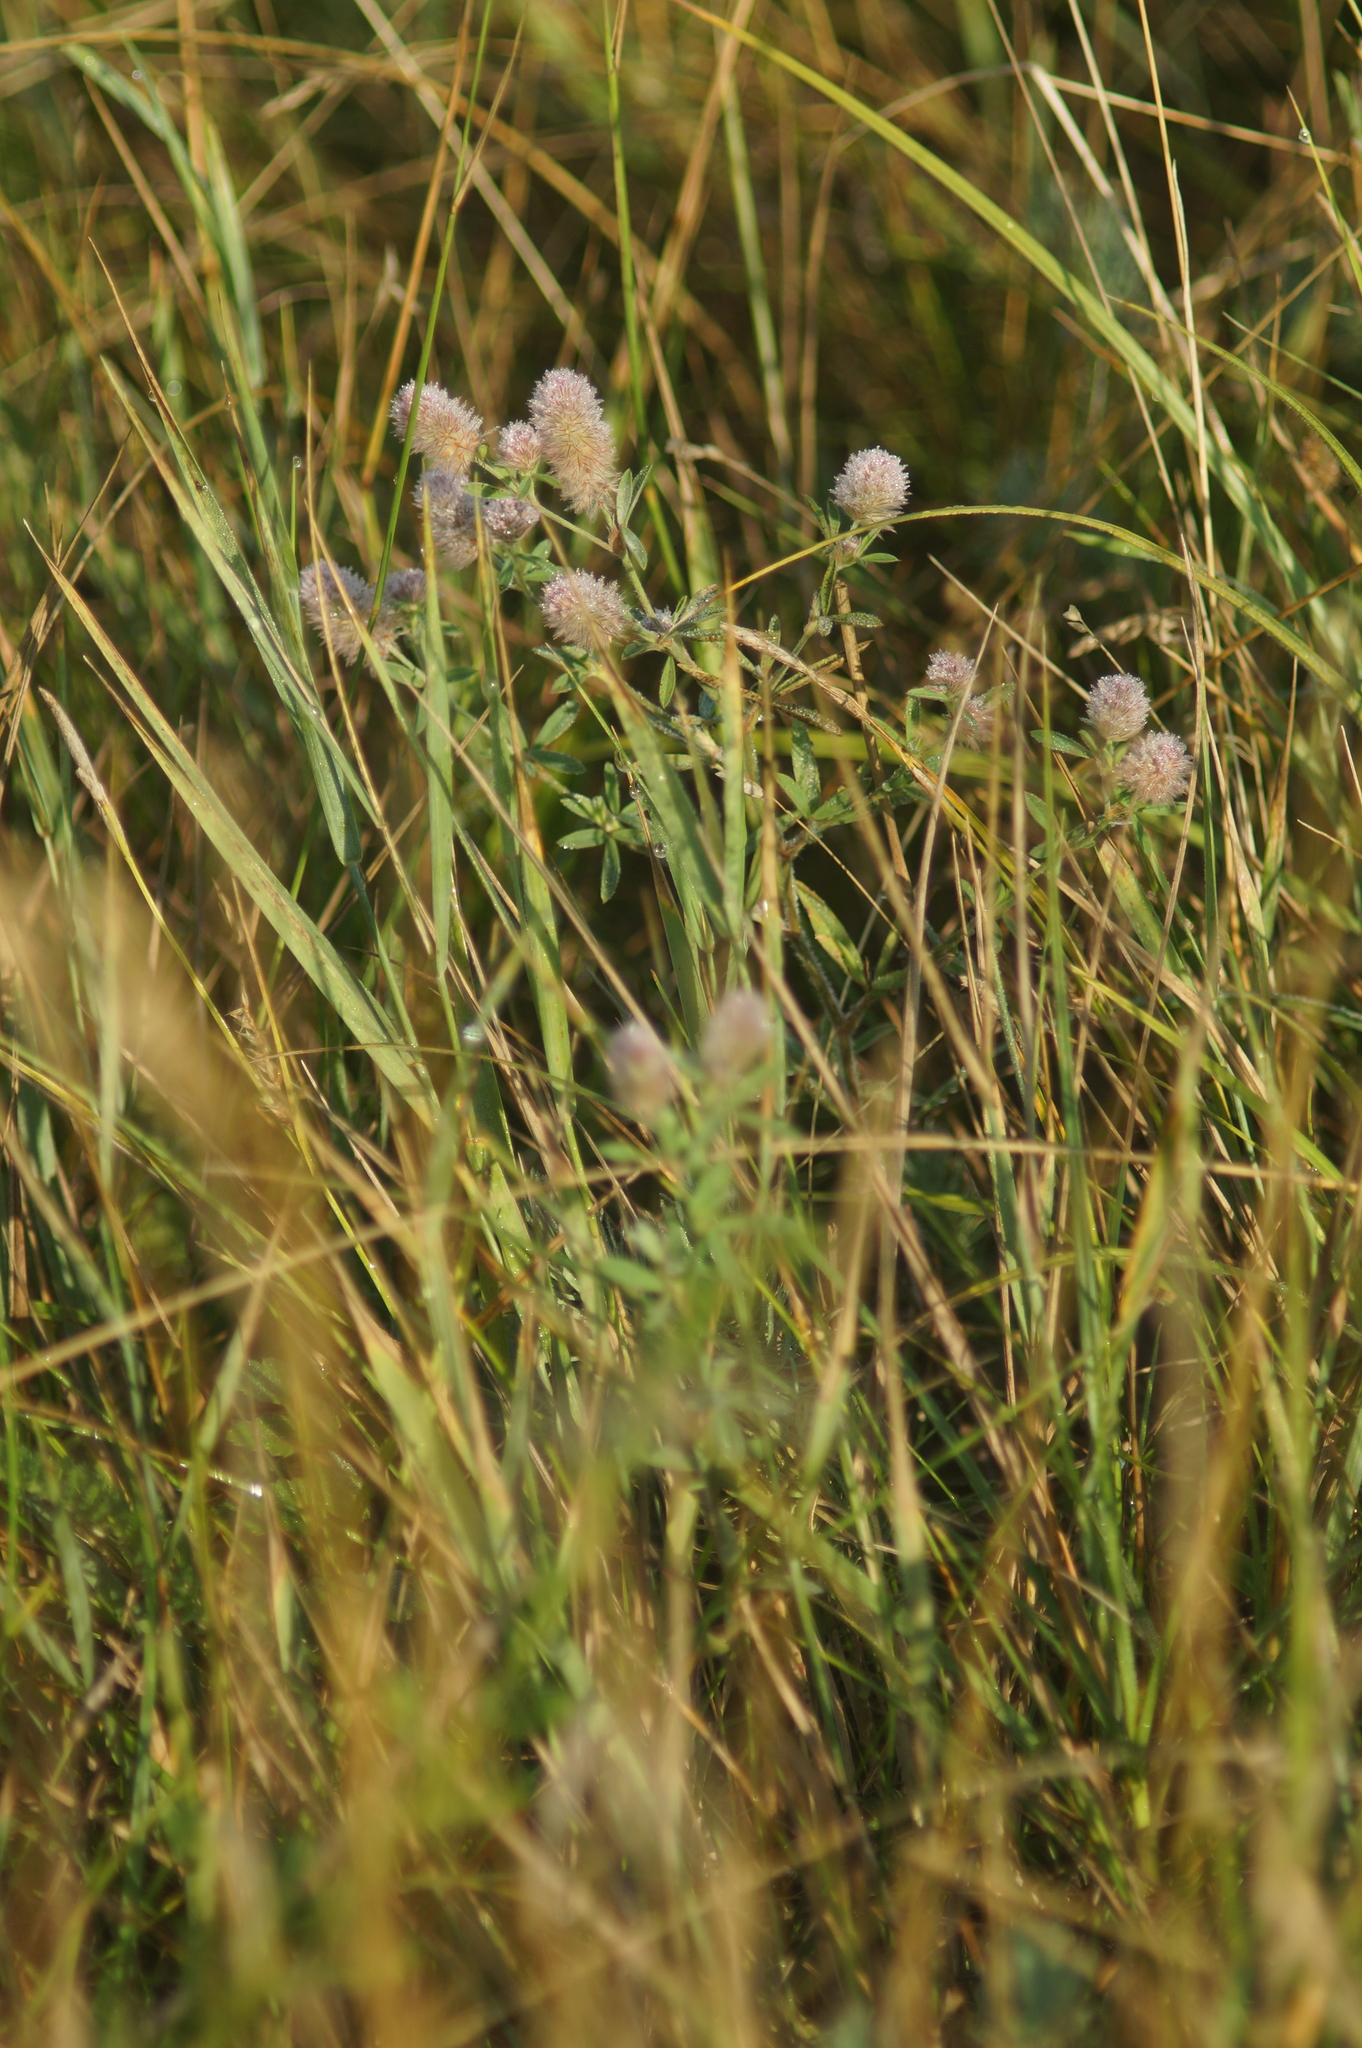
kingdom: Plantae
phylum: Tracheophyta
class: Magnoliopsida
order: Fabales
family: Fabaceae
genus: Trifolium
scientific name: Trifolium arvense
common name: Hare's-foot clover
